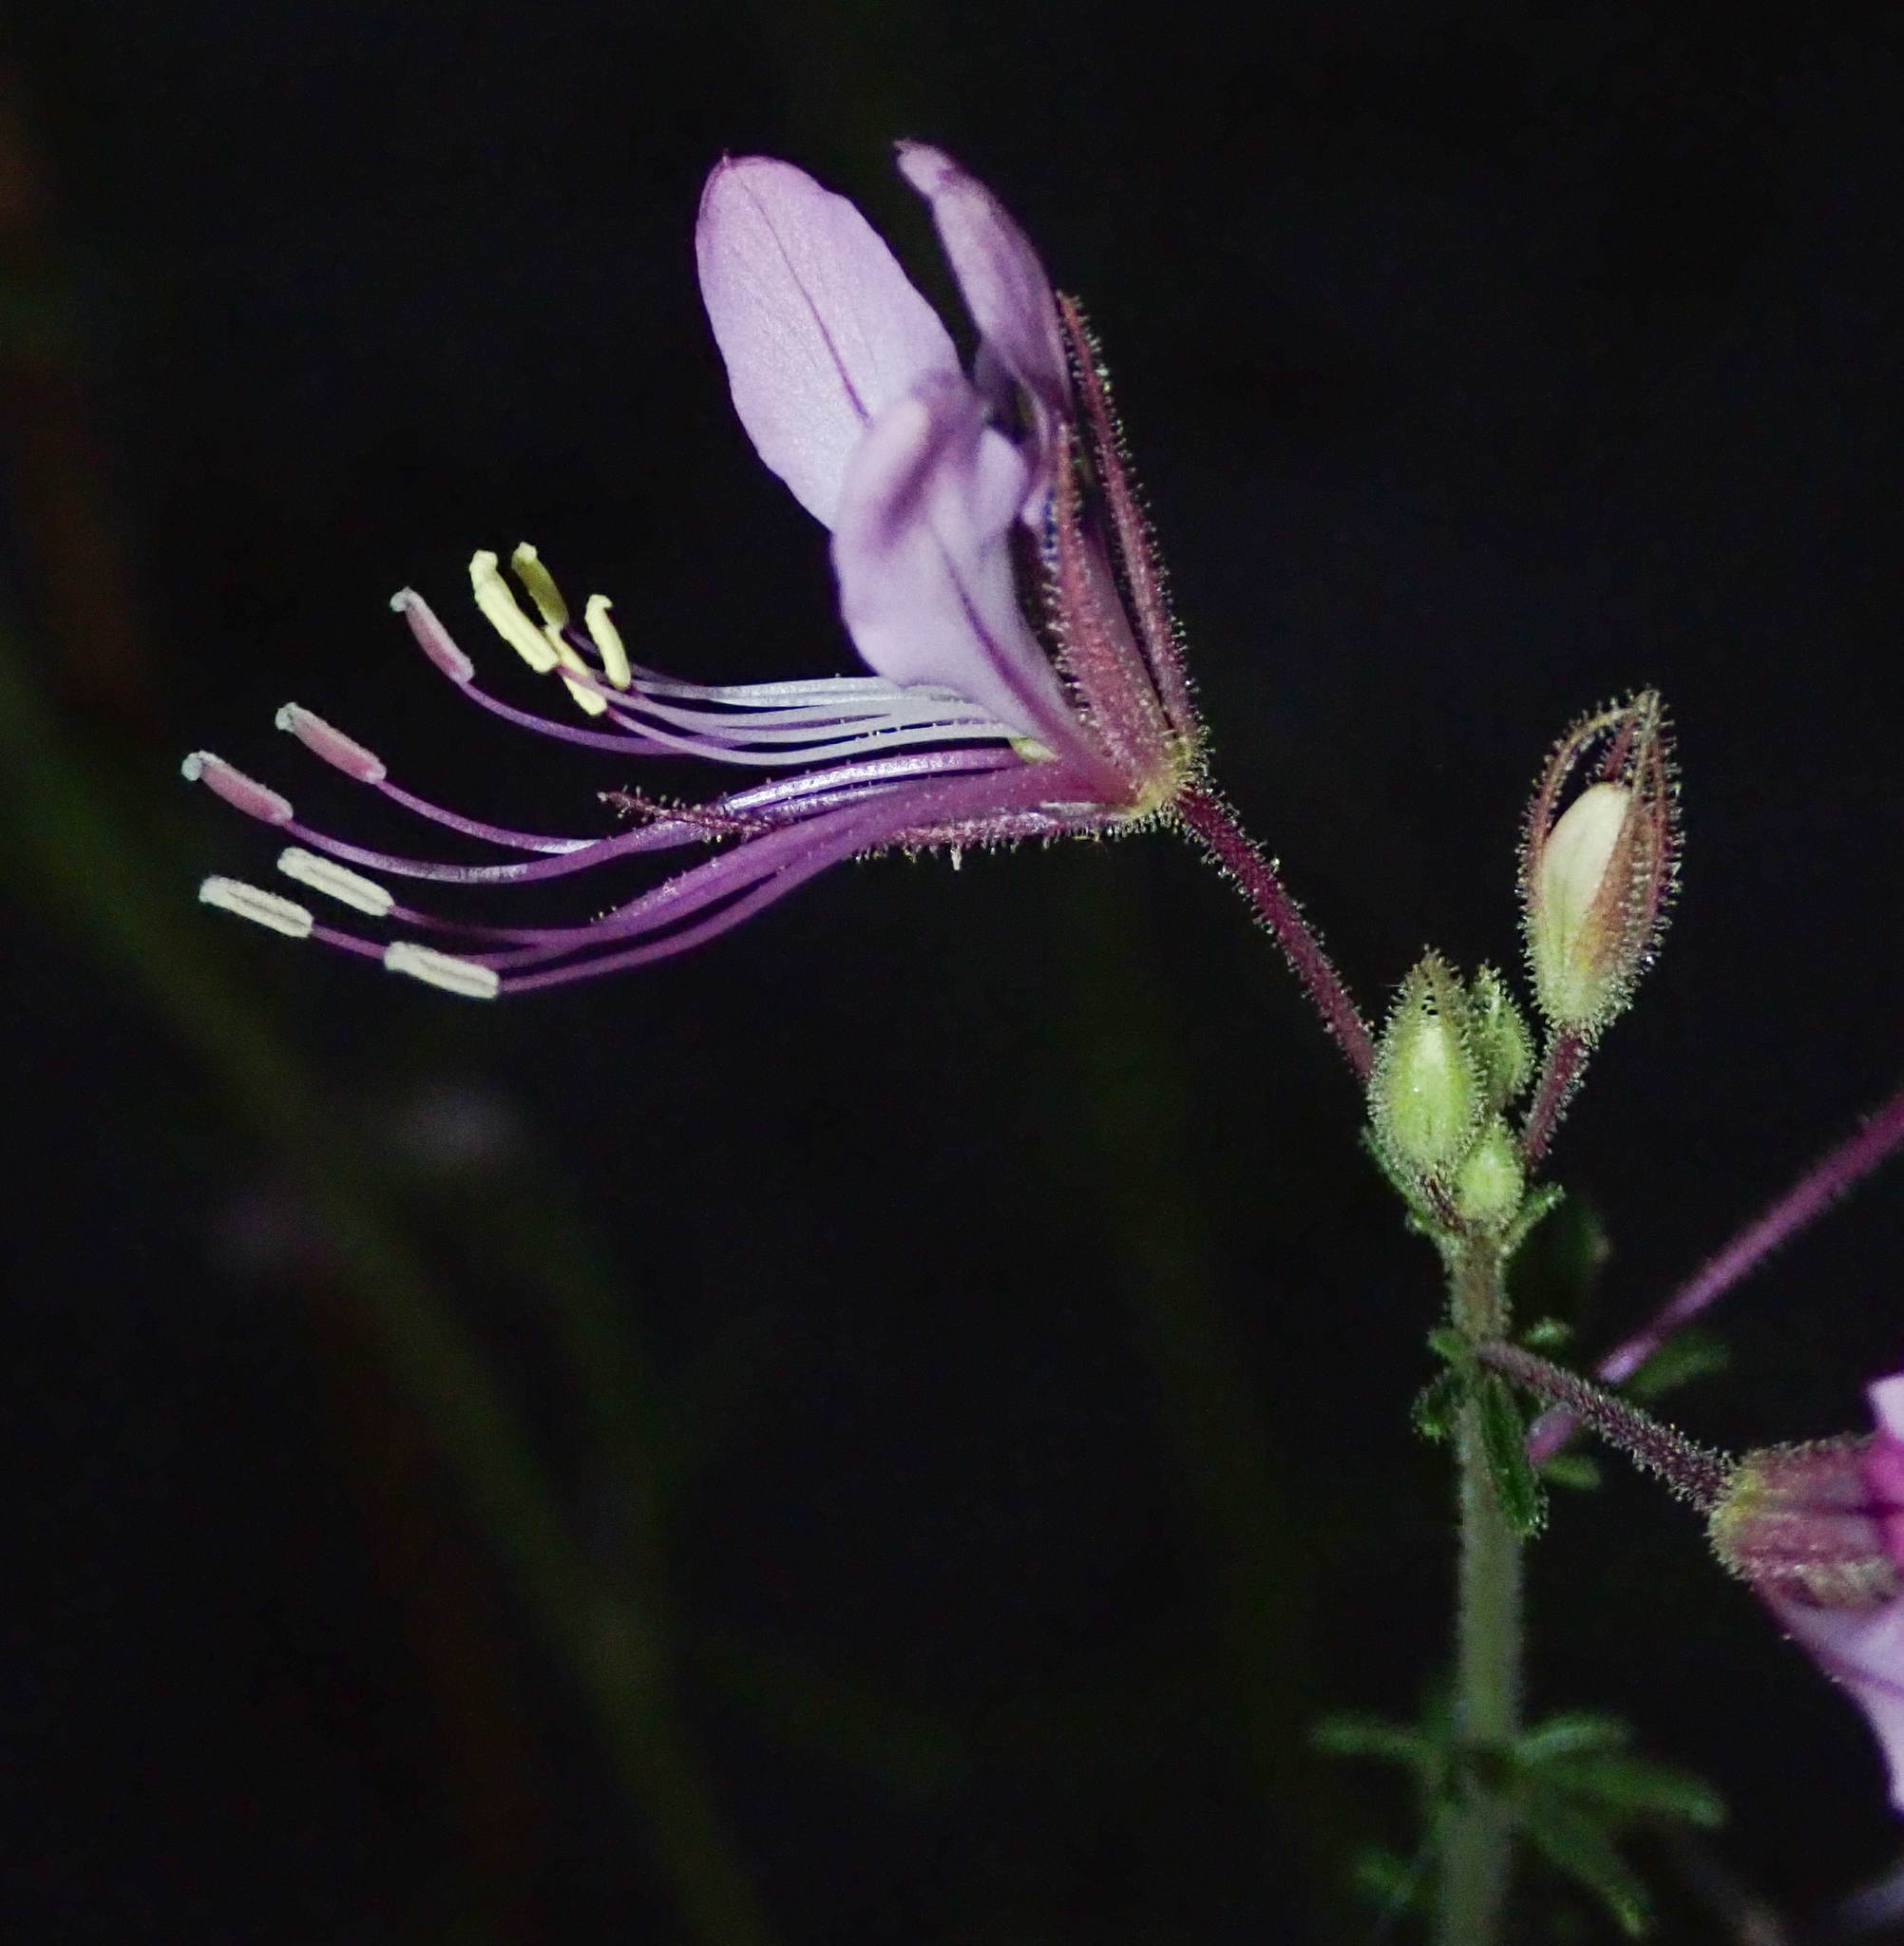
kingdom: Plantae
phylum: Tracheophyta
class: Magnoliopsida
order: Brassicales
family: Cleomaceae
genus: Sieruela
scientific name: Sieruela
